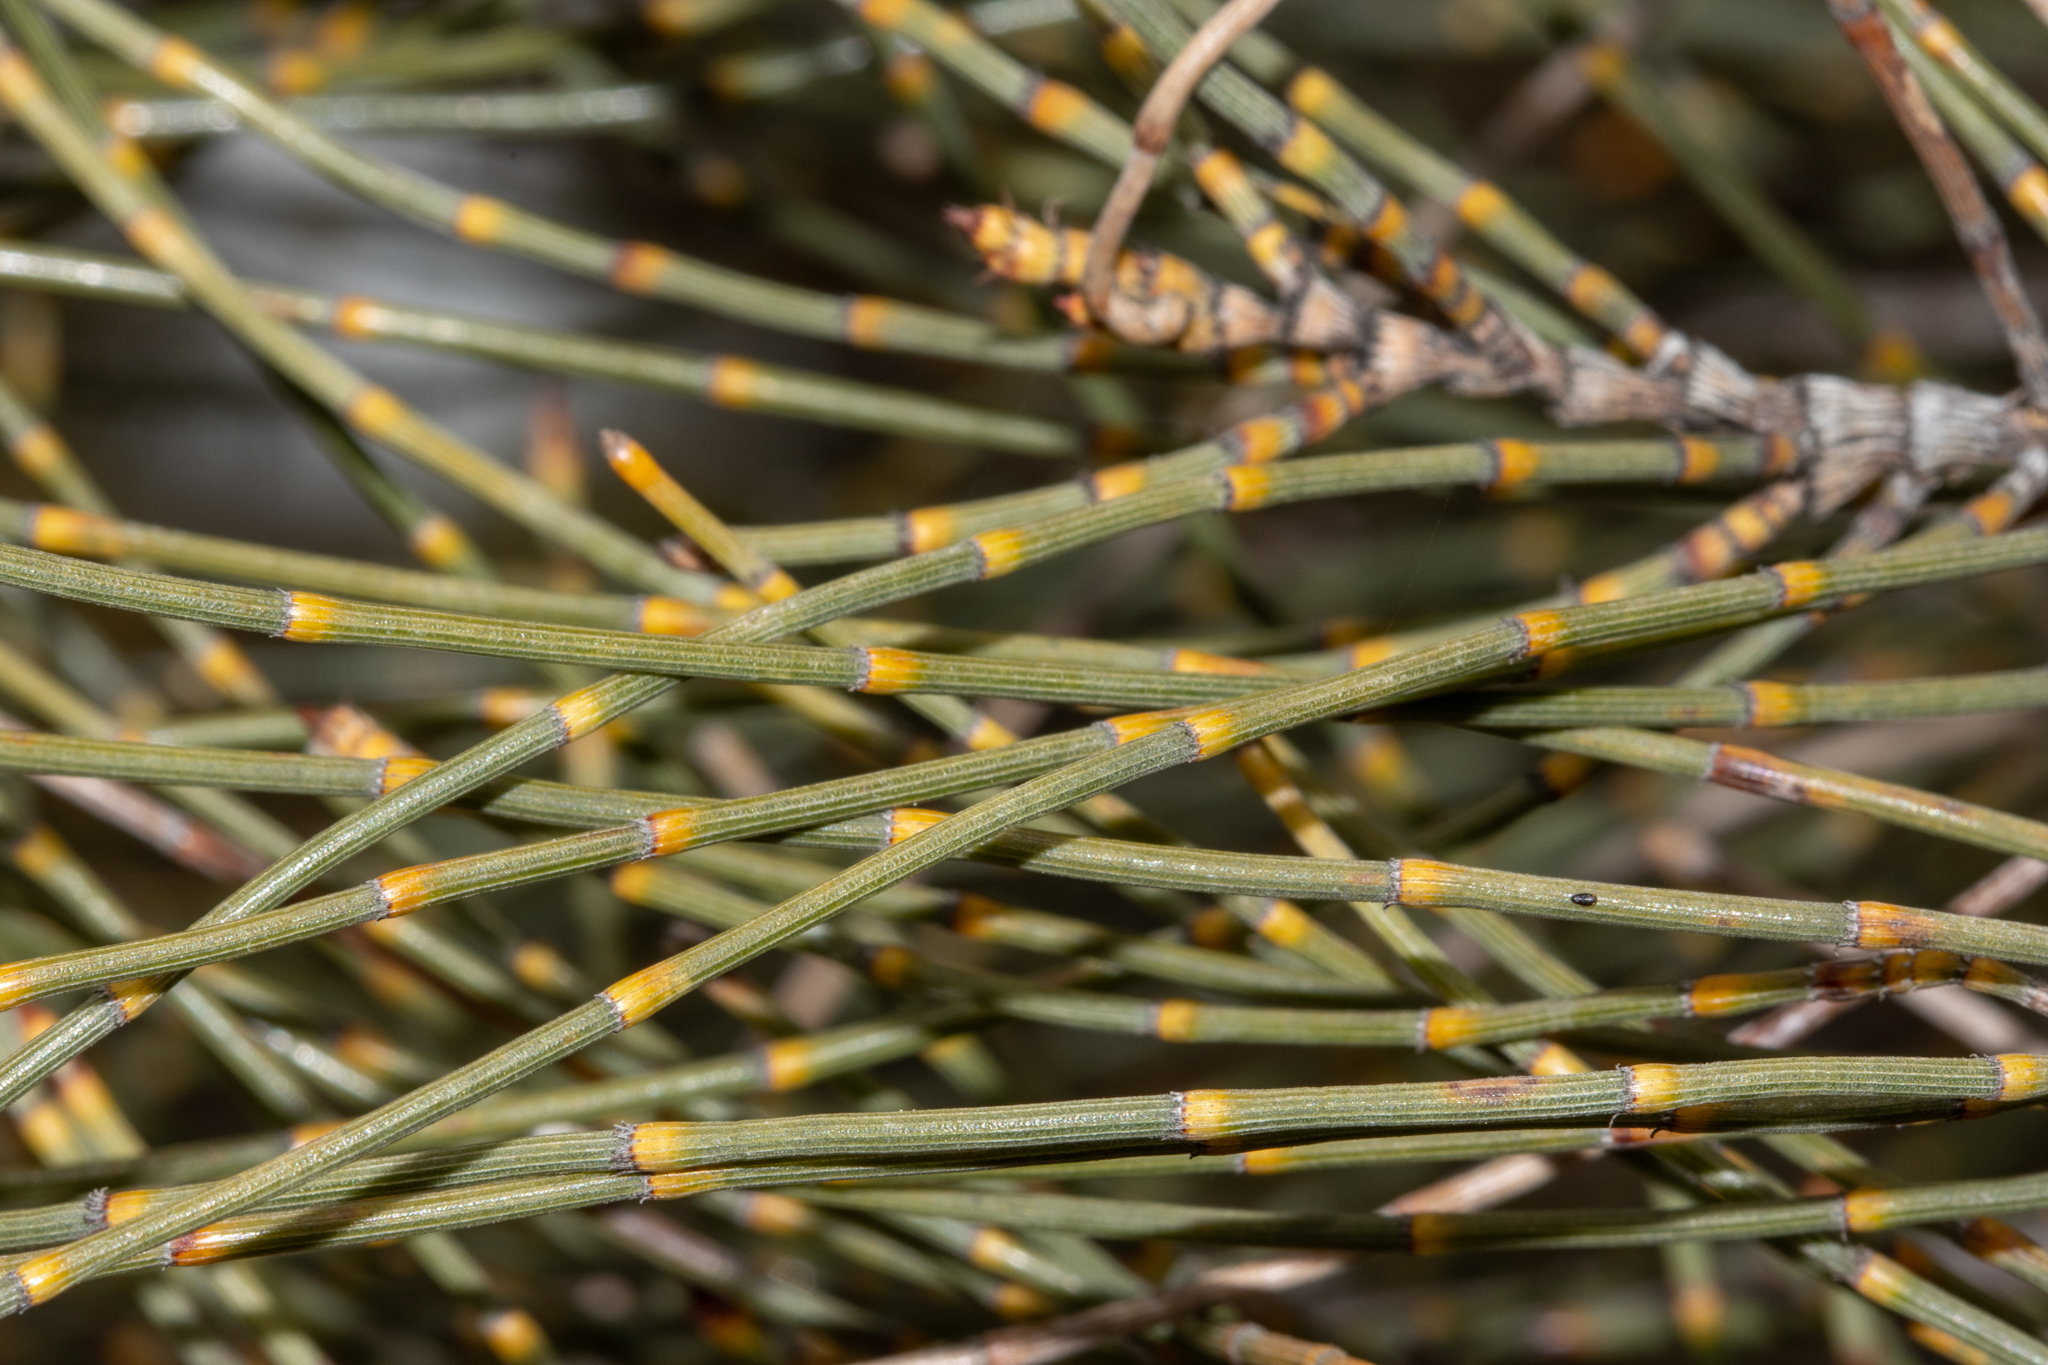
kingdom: Plantae
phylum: Tracheophyta
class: Magnoliopsida
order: Fagales
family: Casuarinaceae
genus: Allocasuarina
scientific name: Allocasuarina acutivalvis
